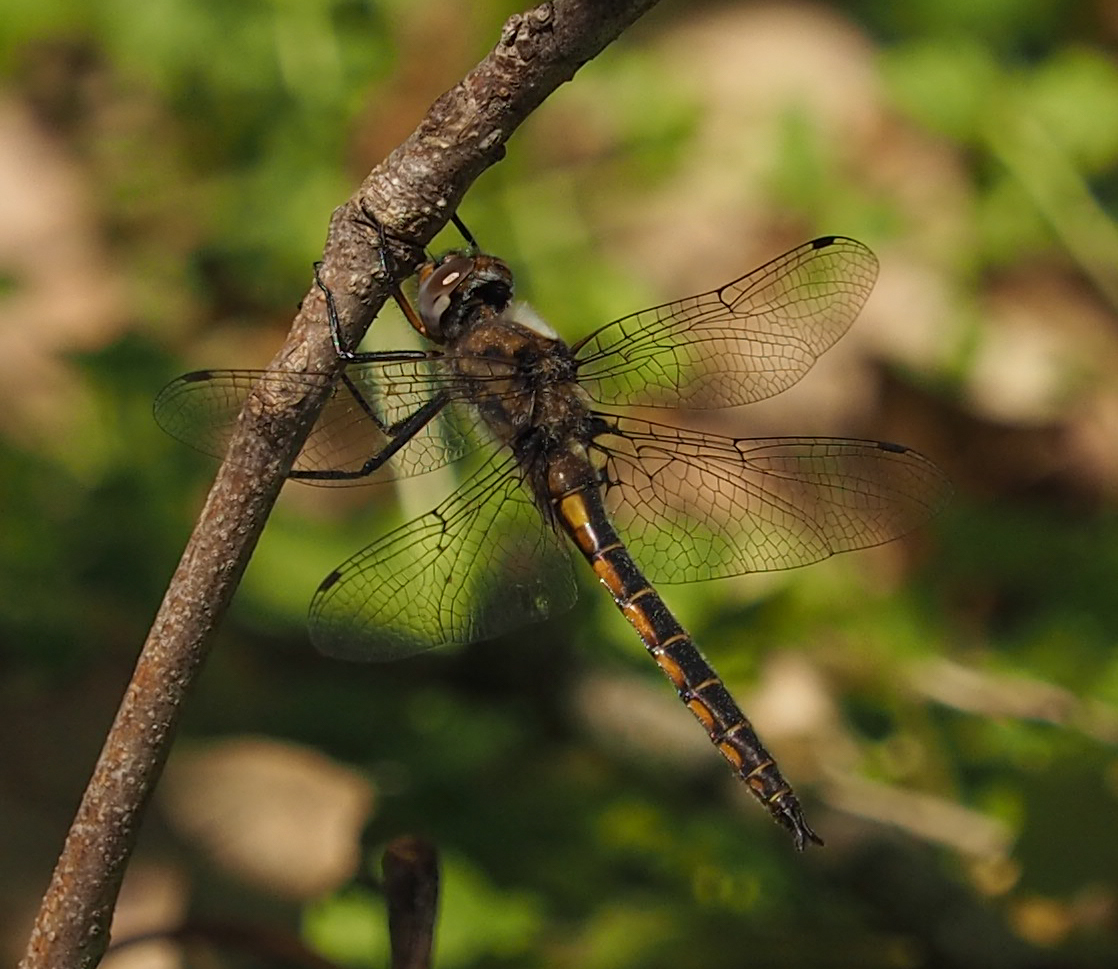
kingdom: Animalia
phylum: Arthropoda
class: Insecta
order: Odonata
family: Corduliidae
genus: Epitheca
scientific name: Epitheca cynosura
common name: Common baskettail
